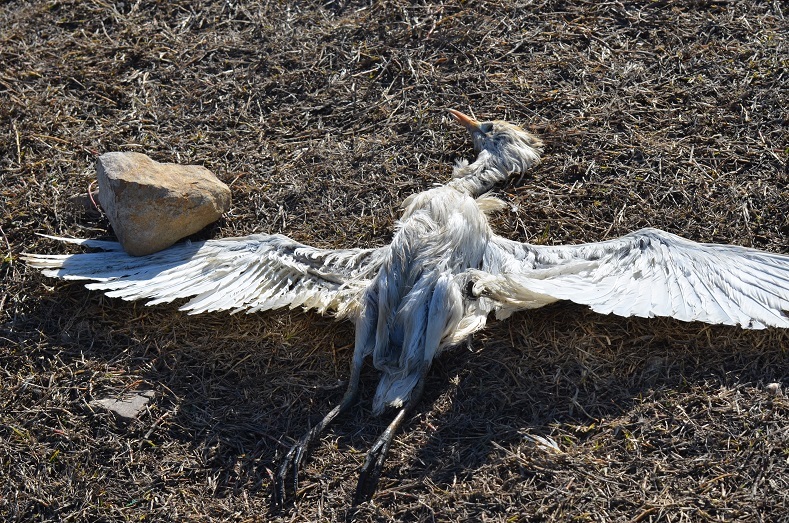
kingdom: Animalia
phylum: Chordata
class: Aves
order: Pelecaniformes
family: Ardeidae
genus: Bubulcus
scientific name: Bubulcus ibis
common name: Cattle egret
